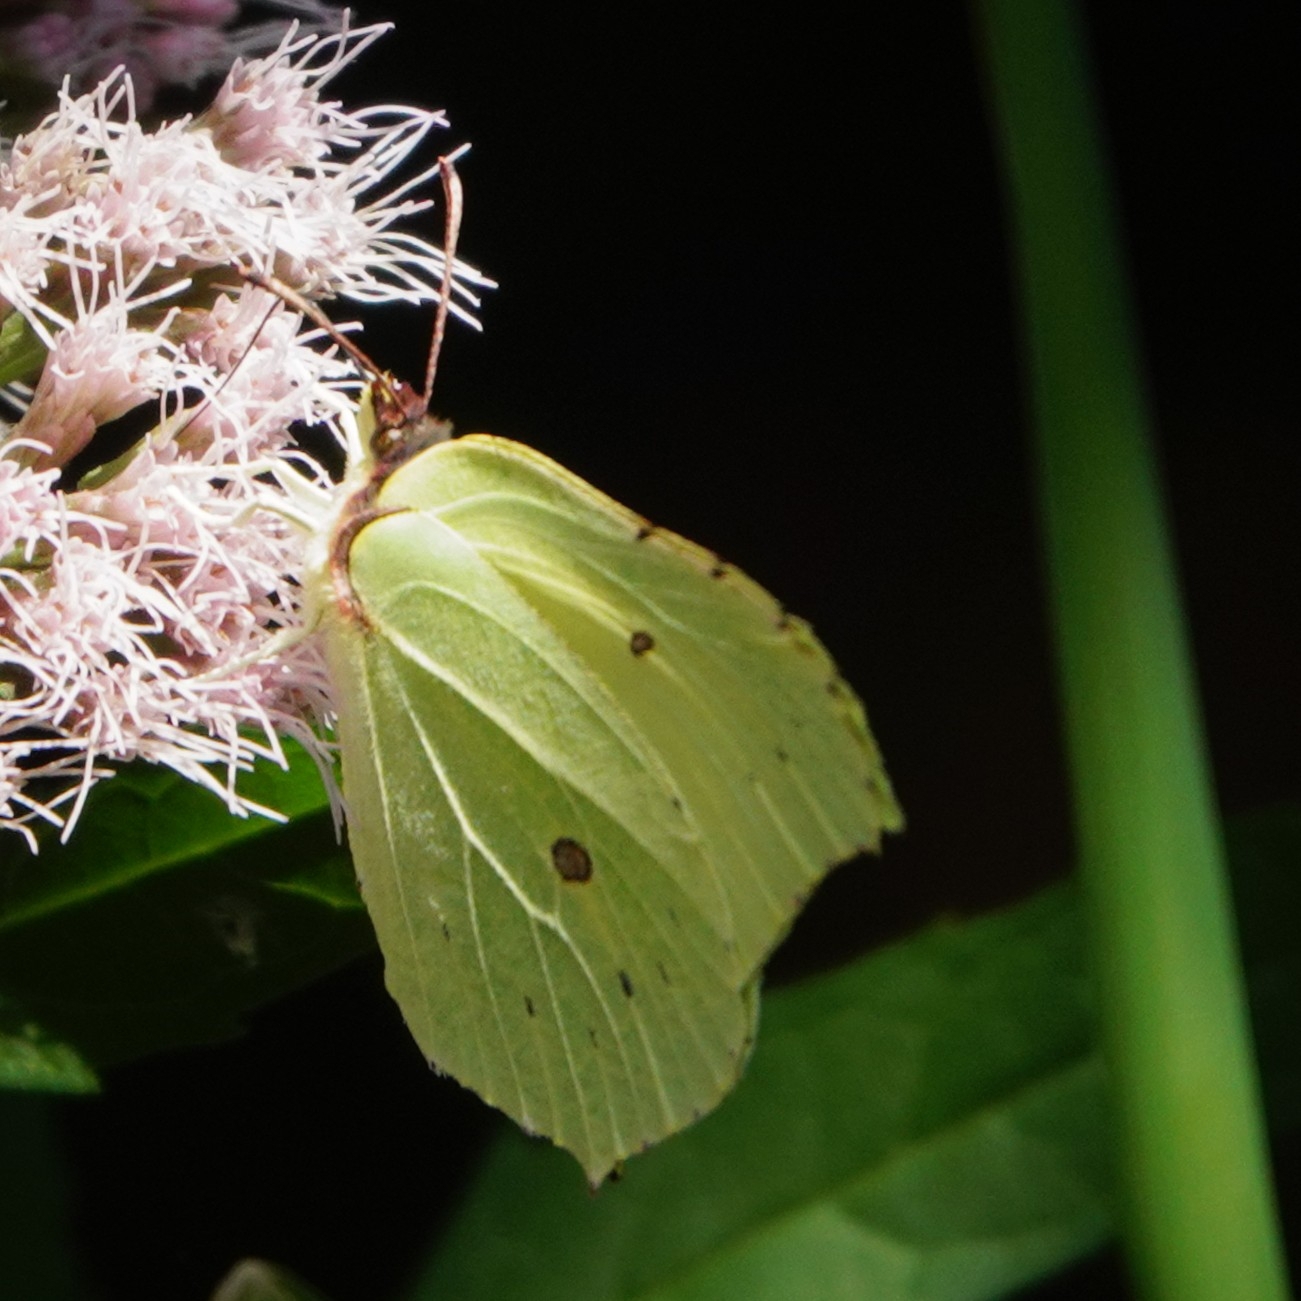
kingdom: Animalia
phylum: Arthropoda
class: Insecta
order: Lepidoptera
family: Pieridae
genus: Gonepteryx
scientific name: Gonepteryx rhamni
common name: Brimstone
